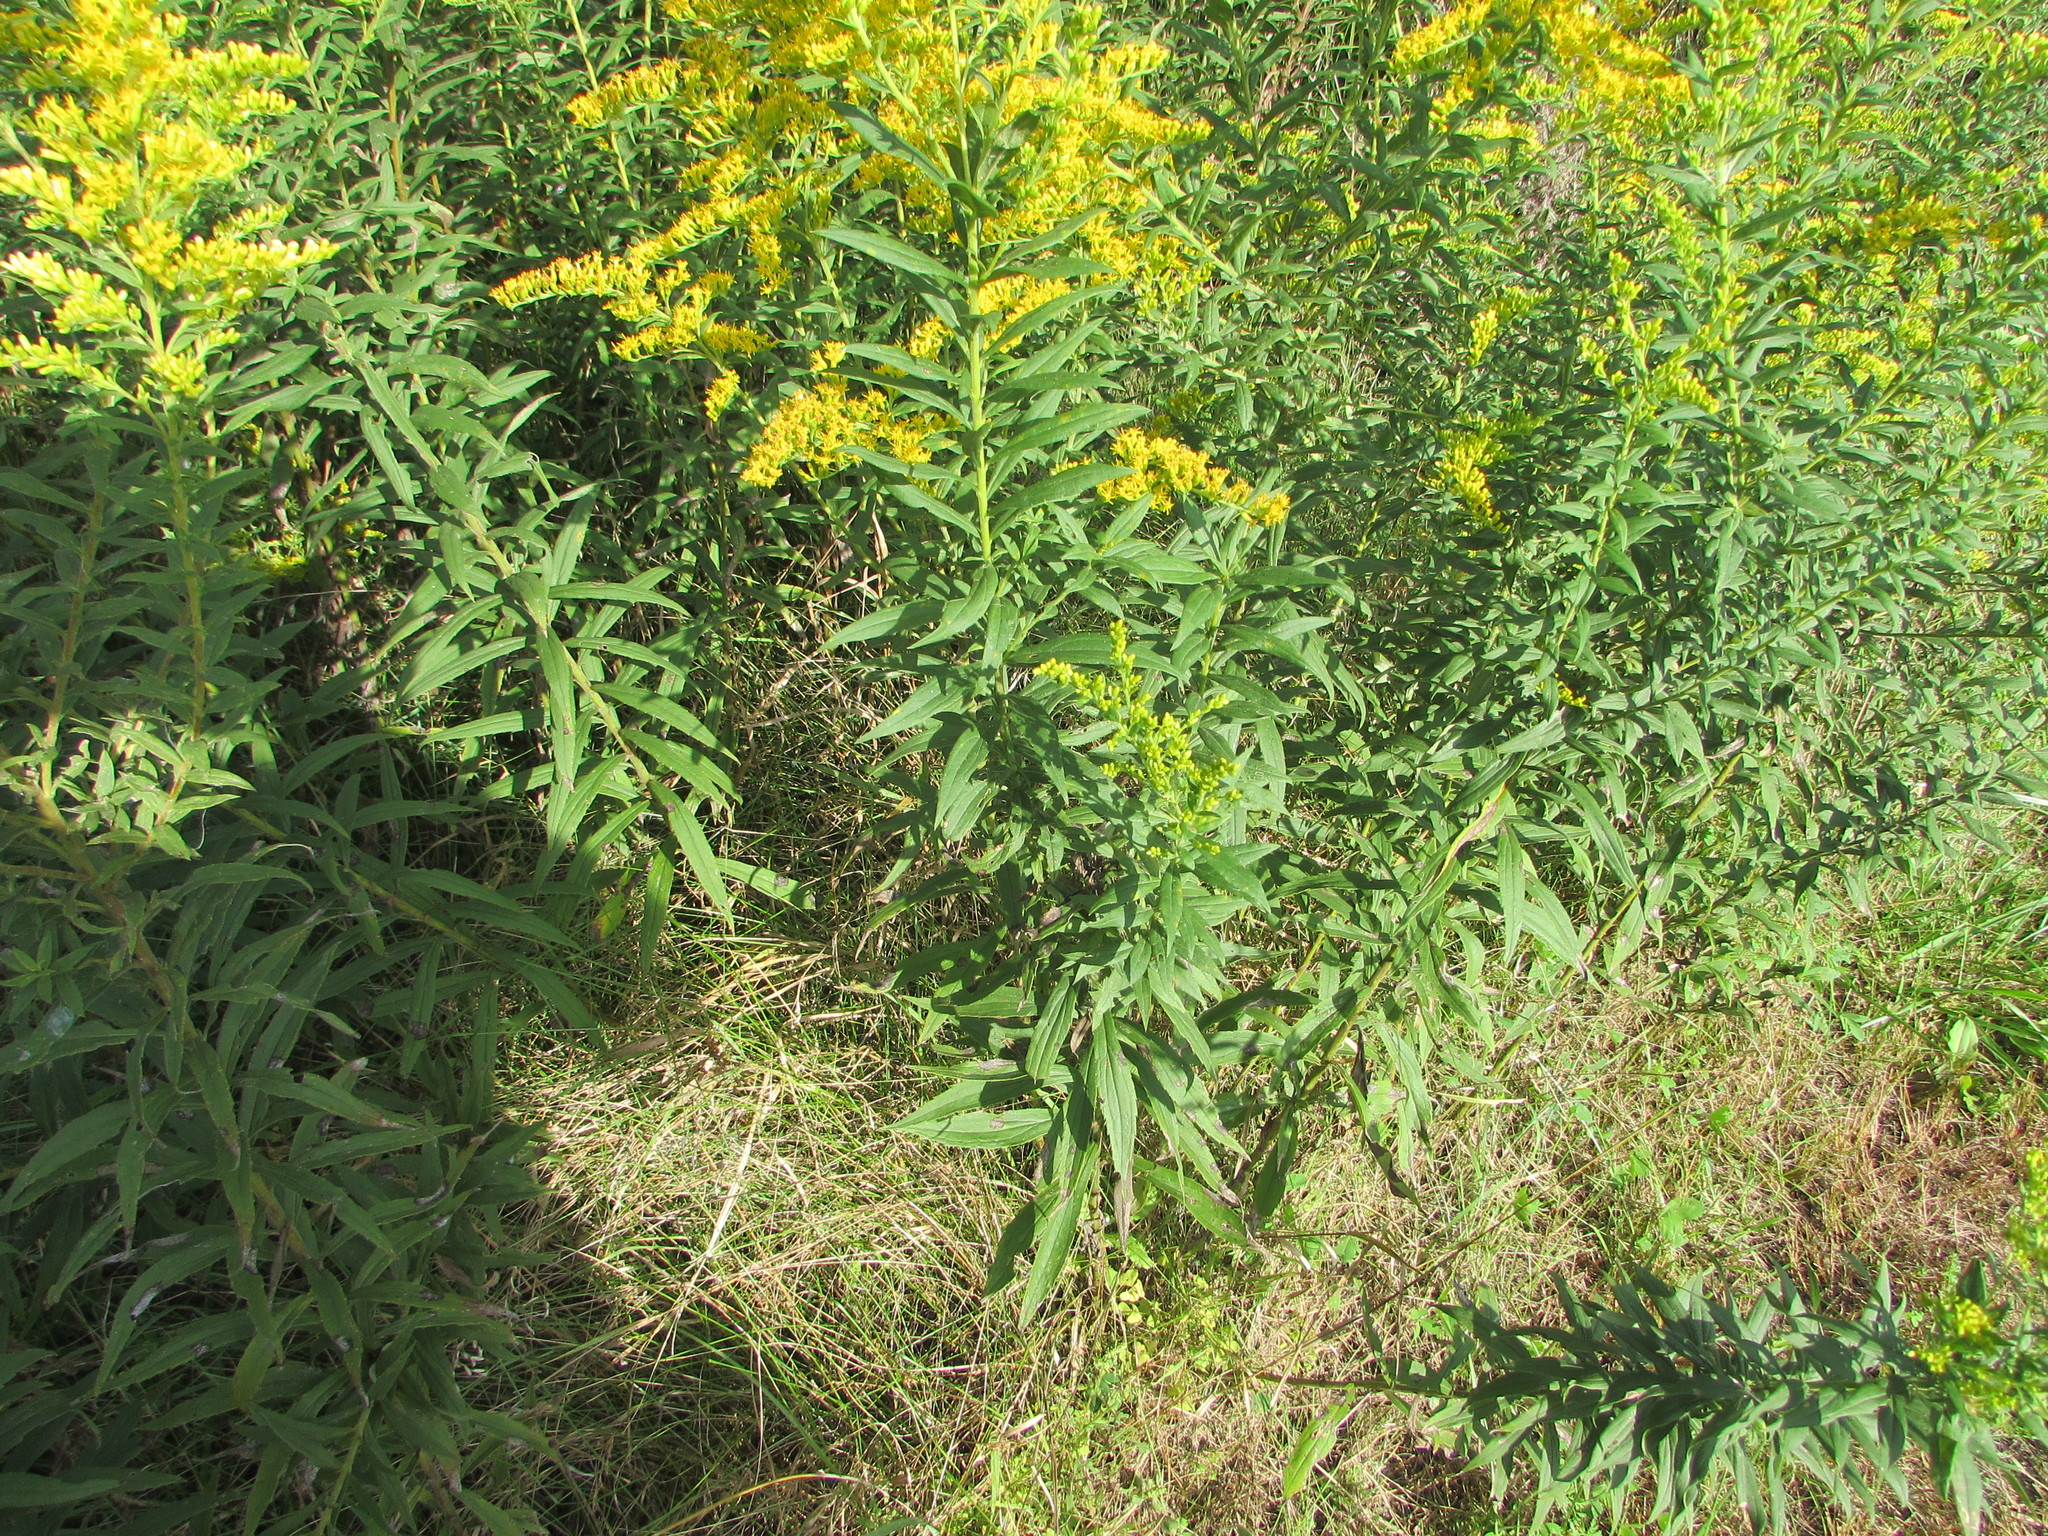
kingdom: Plantae
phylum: Tracheophyta
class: Magnoliopsida
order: Asterales
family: Asteraceae
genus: Solidago
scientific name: Solidago canadensis
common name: Canada goldenrod
